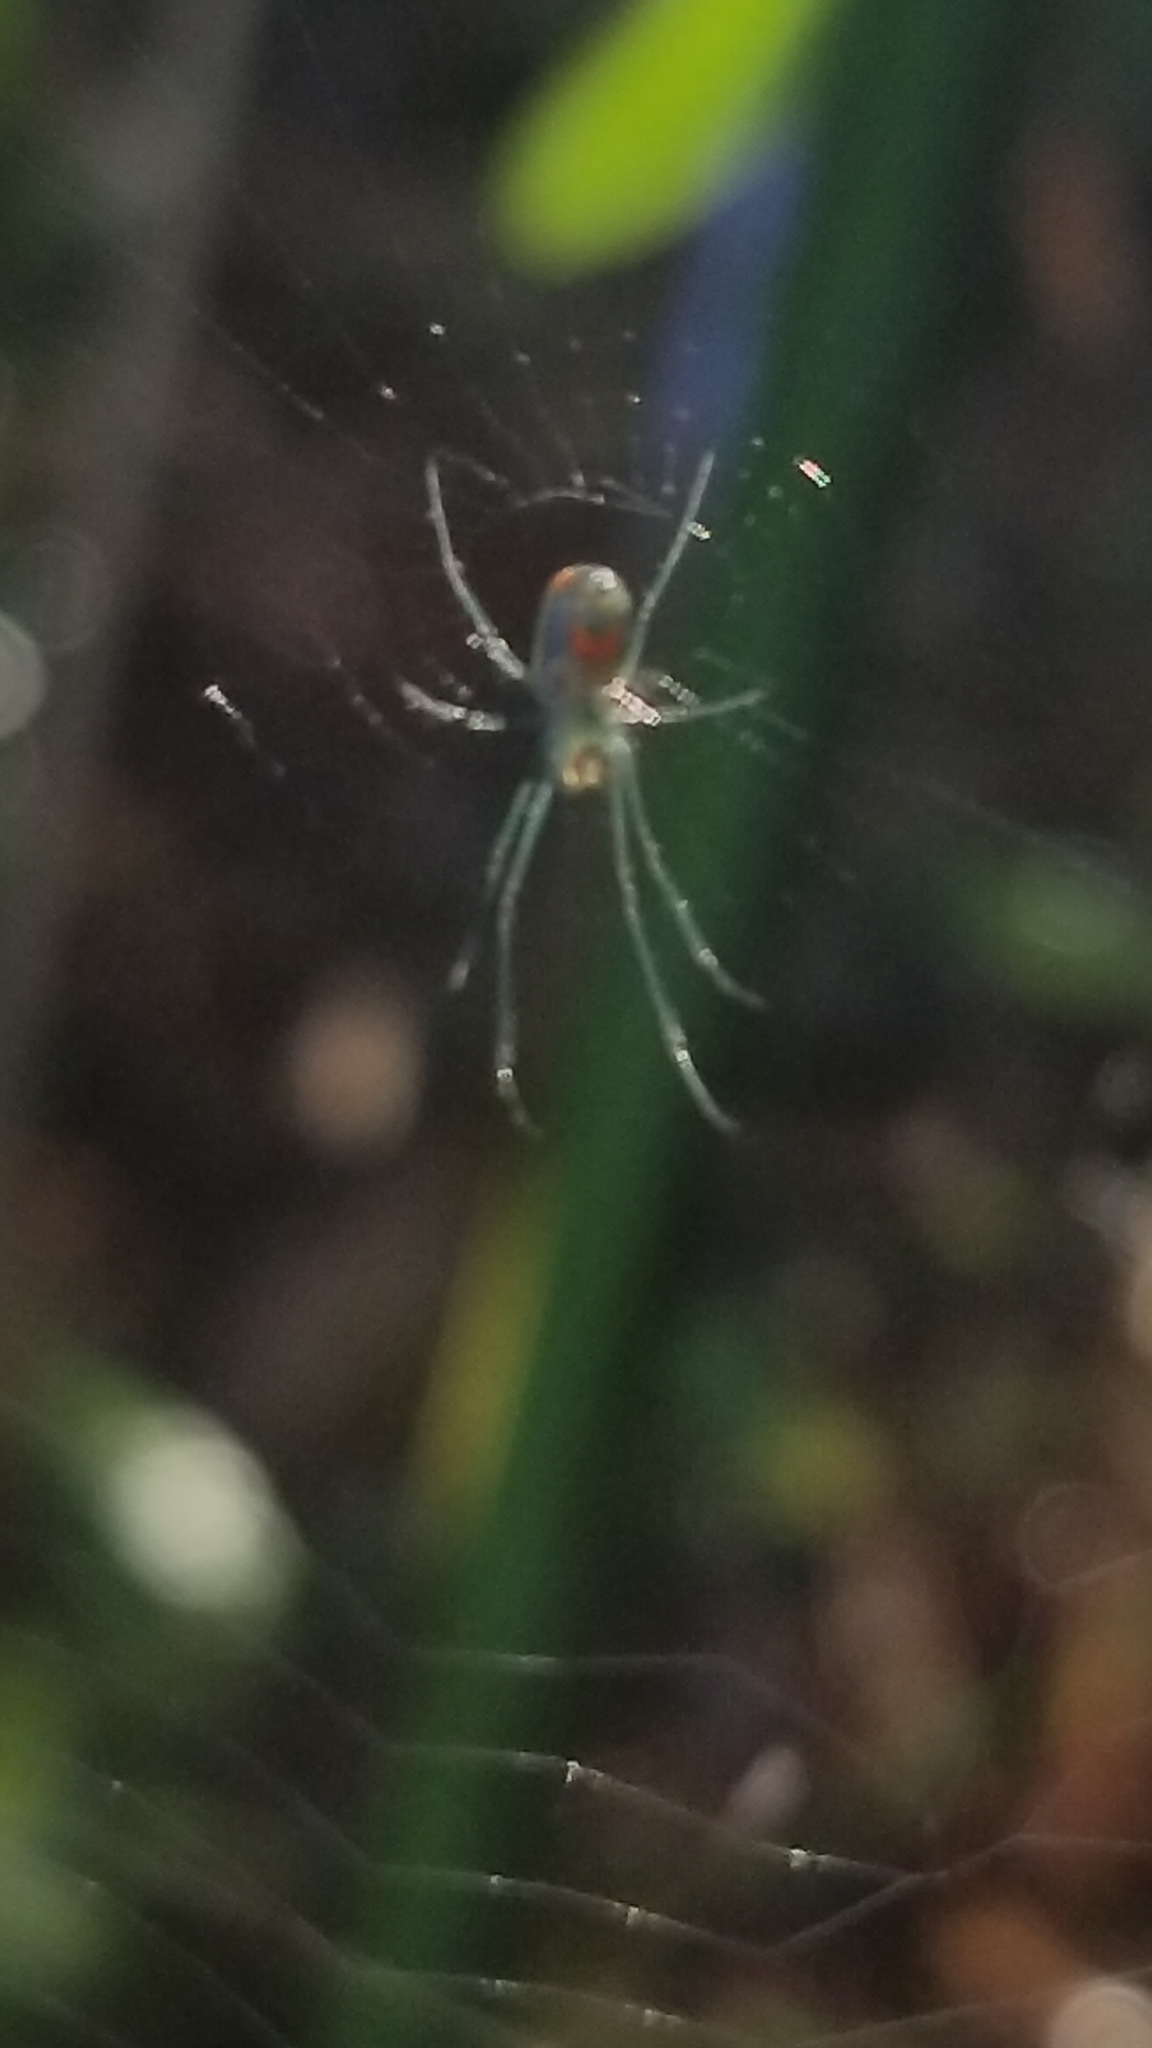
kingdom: Animalia
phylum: Arthropoda
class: Arachnida
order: Araneae
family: Tetragnathidae
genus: Leucauge
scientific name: Leucauge argyrobapta
